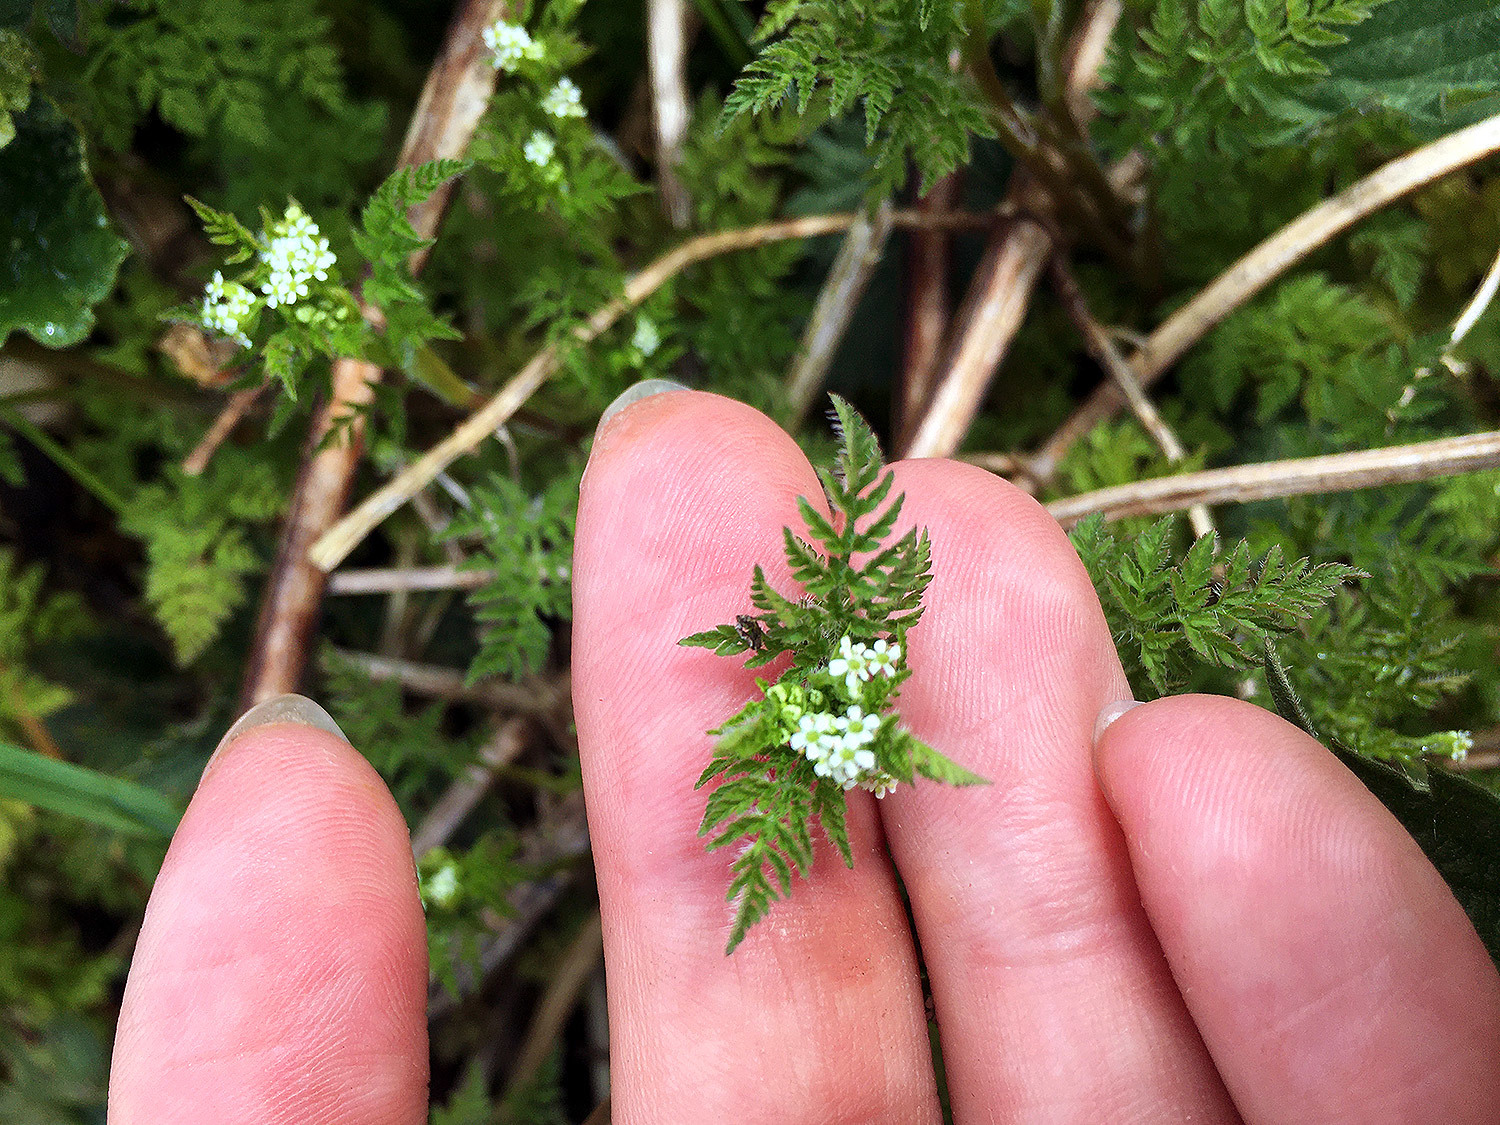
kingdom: Plantae
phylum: Tracheophyta
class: Magnoliopsida
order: Apiales
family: Apiaceae
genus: Anthriscus
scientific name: Anthriscus caucalis
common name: Bur chervil
